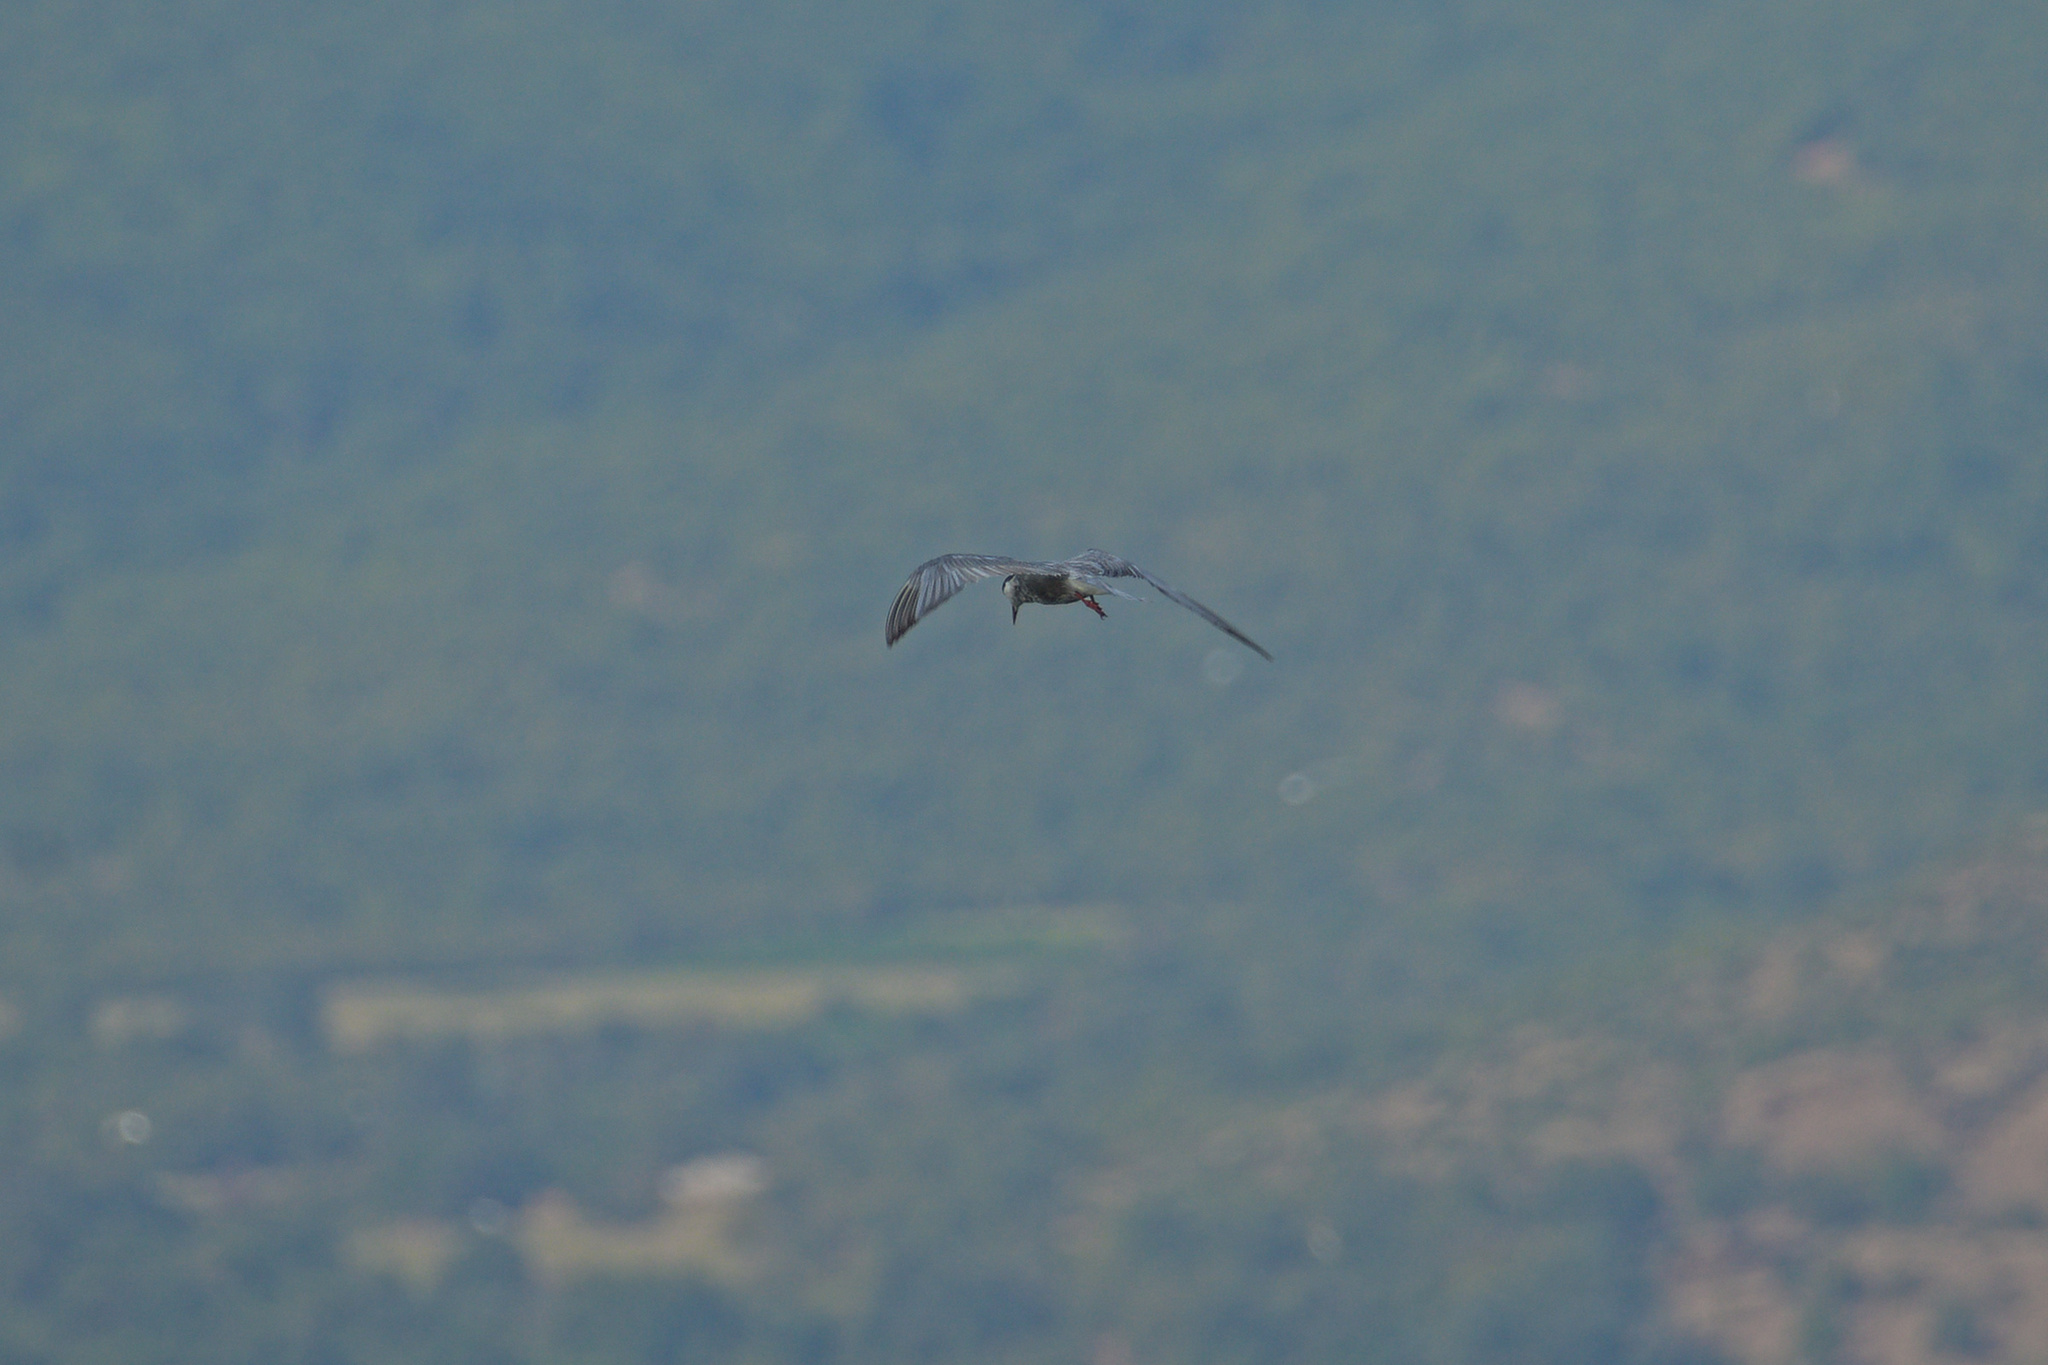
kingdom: Animalia
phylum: Chordata
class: Aves
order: Charadriiformes
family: Laridae
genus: Chlidonias
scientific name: Chlidonias hybrida
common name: Whiskered tern
